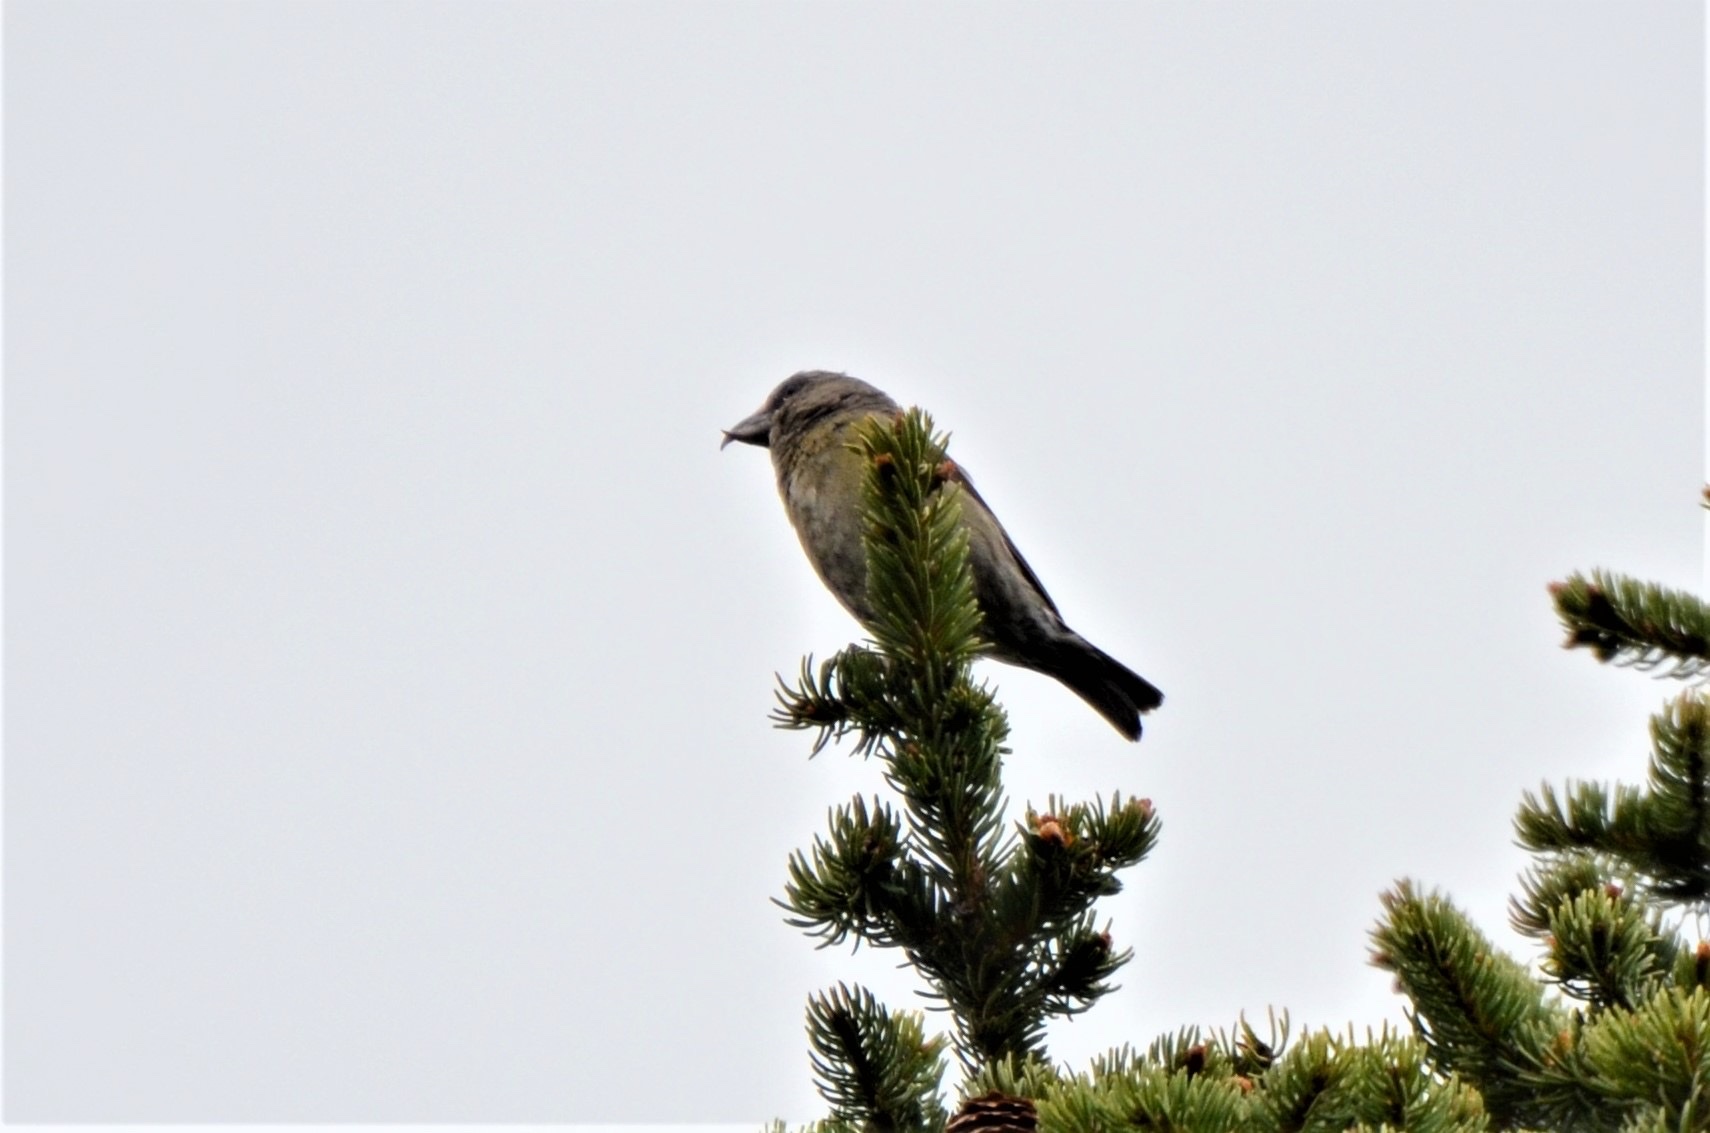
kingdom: Animalia
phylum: Chordata
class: Aves
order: Passeriformes
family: Fringillidae
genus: Loxia
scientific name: Loxia curvirostra
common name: Red crossbill
